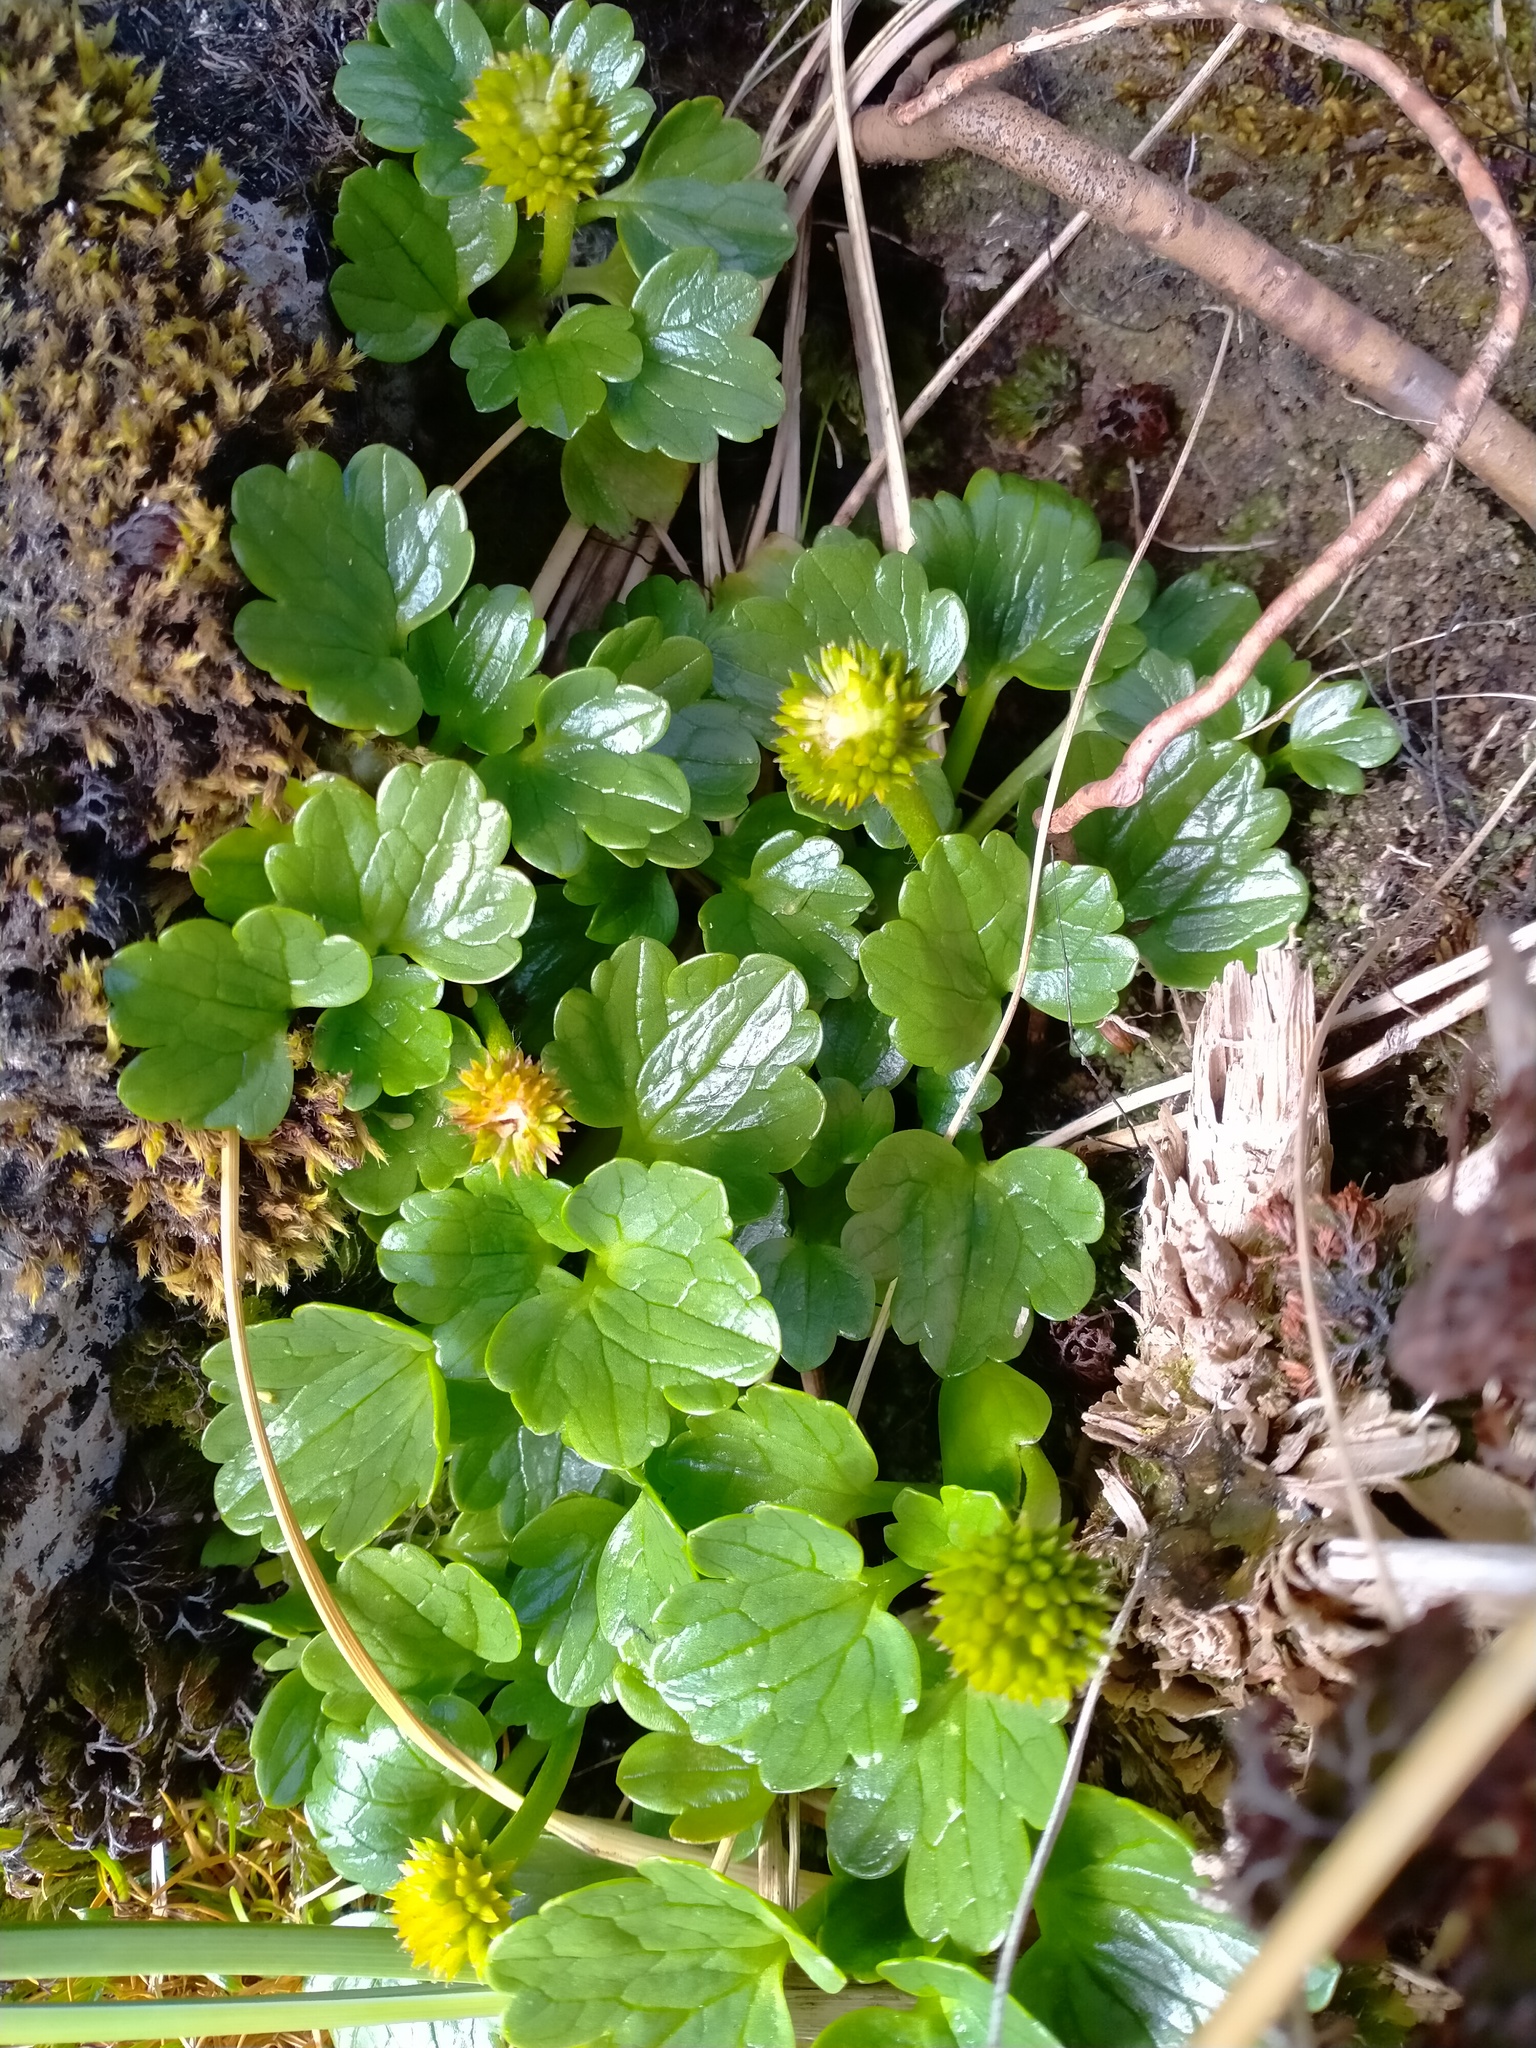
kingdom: Plantae
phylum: Tracheophyta
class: Magnoliopsida
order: Ranunculales
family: Ranunculaceae
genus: Ranunculus
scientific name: Ranunculus pinguis
